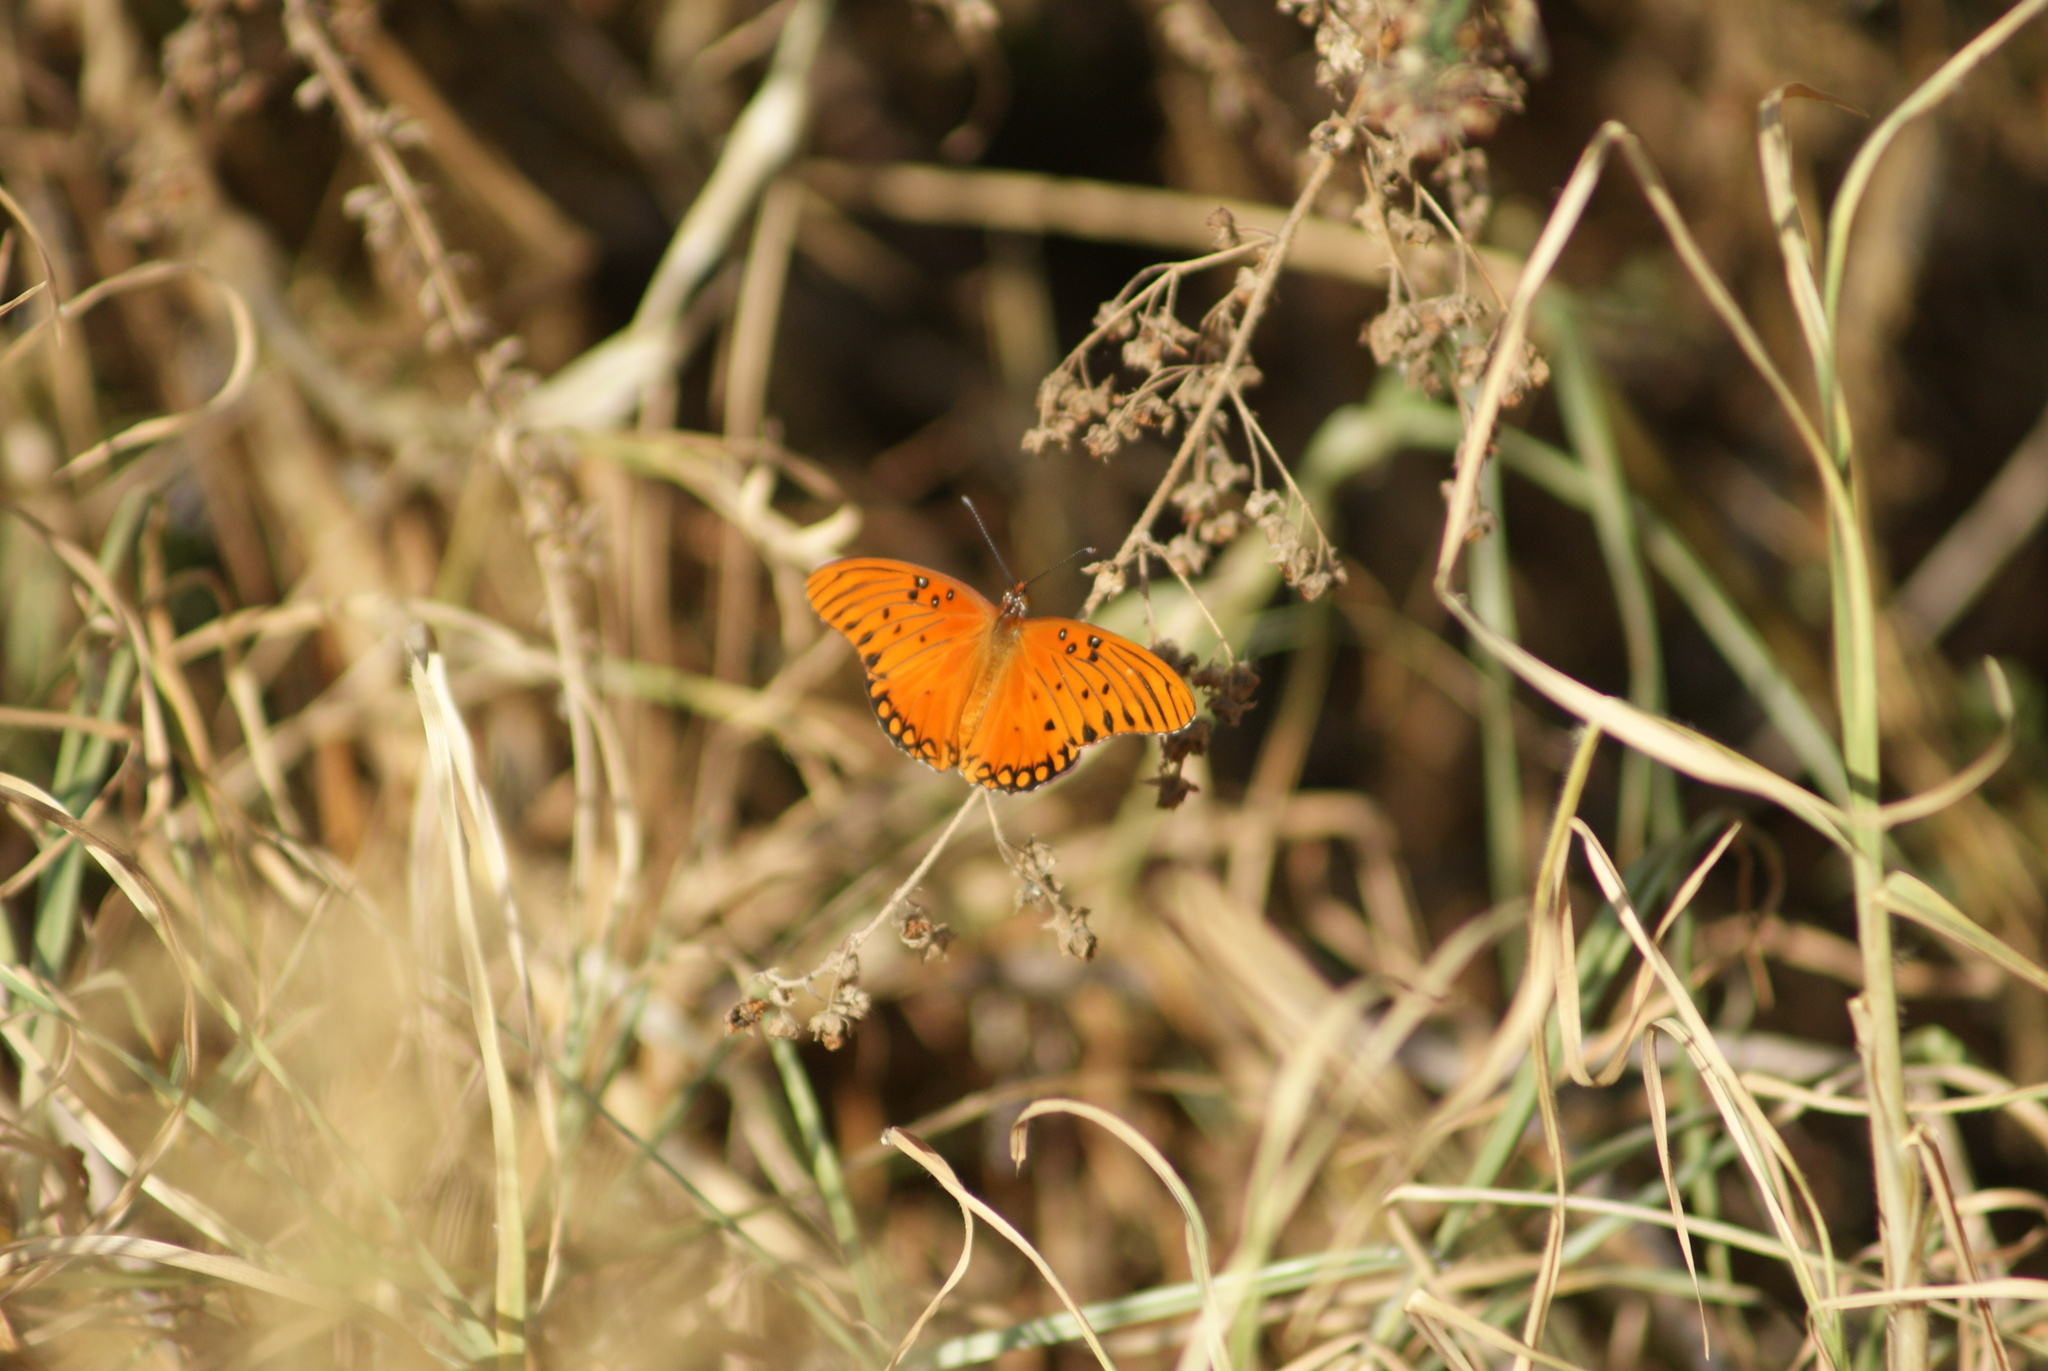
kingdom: Animalia
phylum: Arthropoda
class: Insecta
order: Lepidoptera
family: Nymphalidae
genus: Dione
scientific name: Dione vanillae
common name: Gulf fritillary
